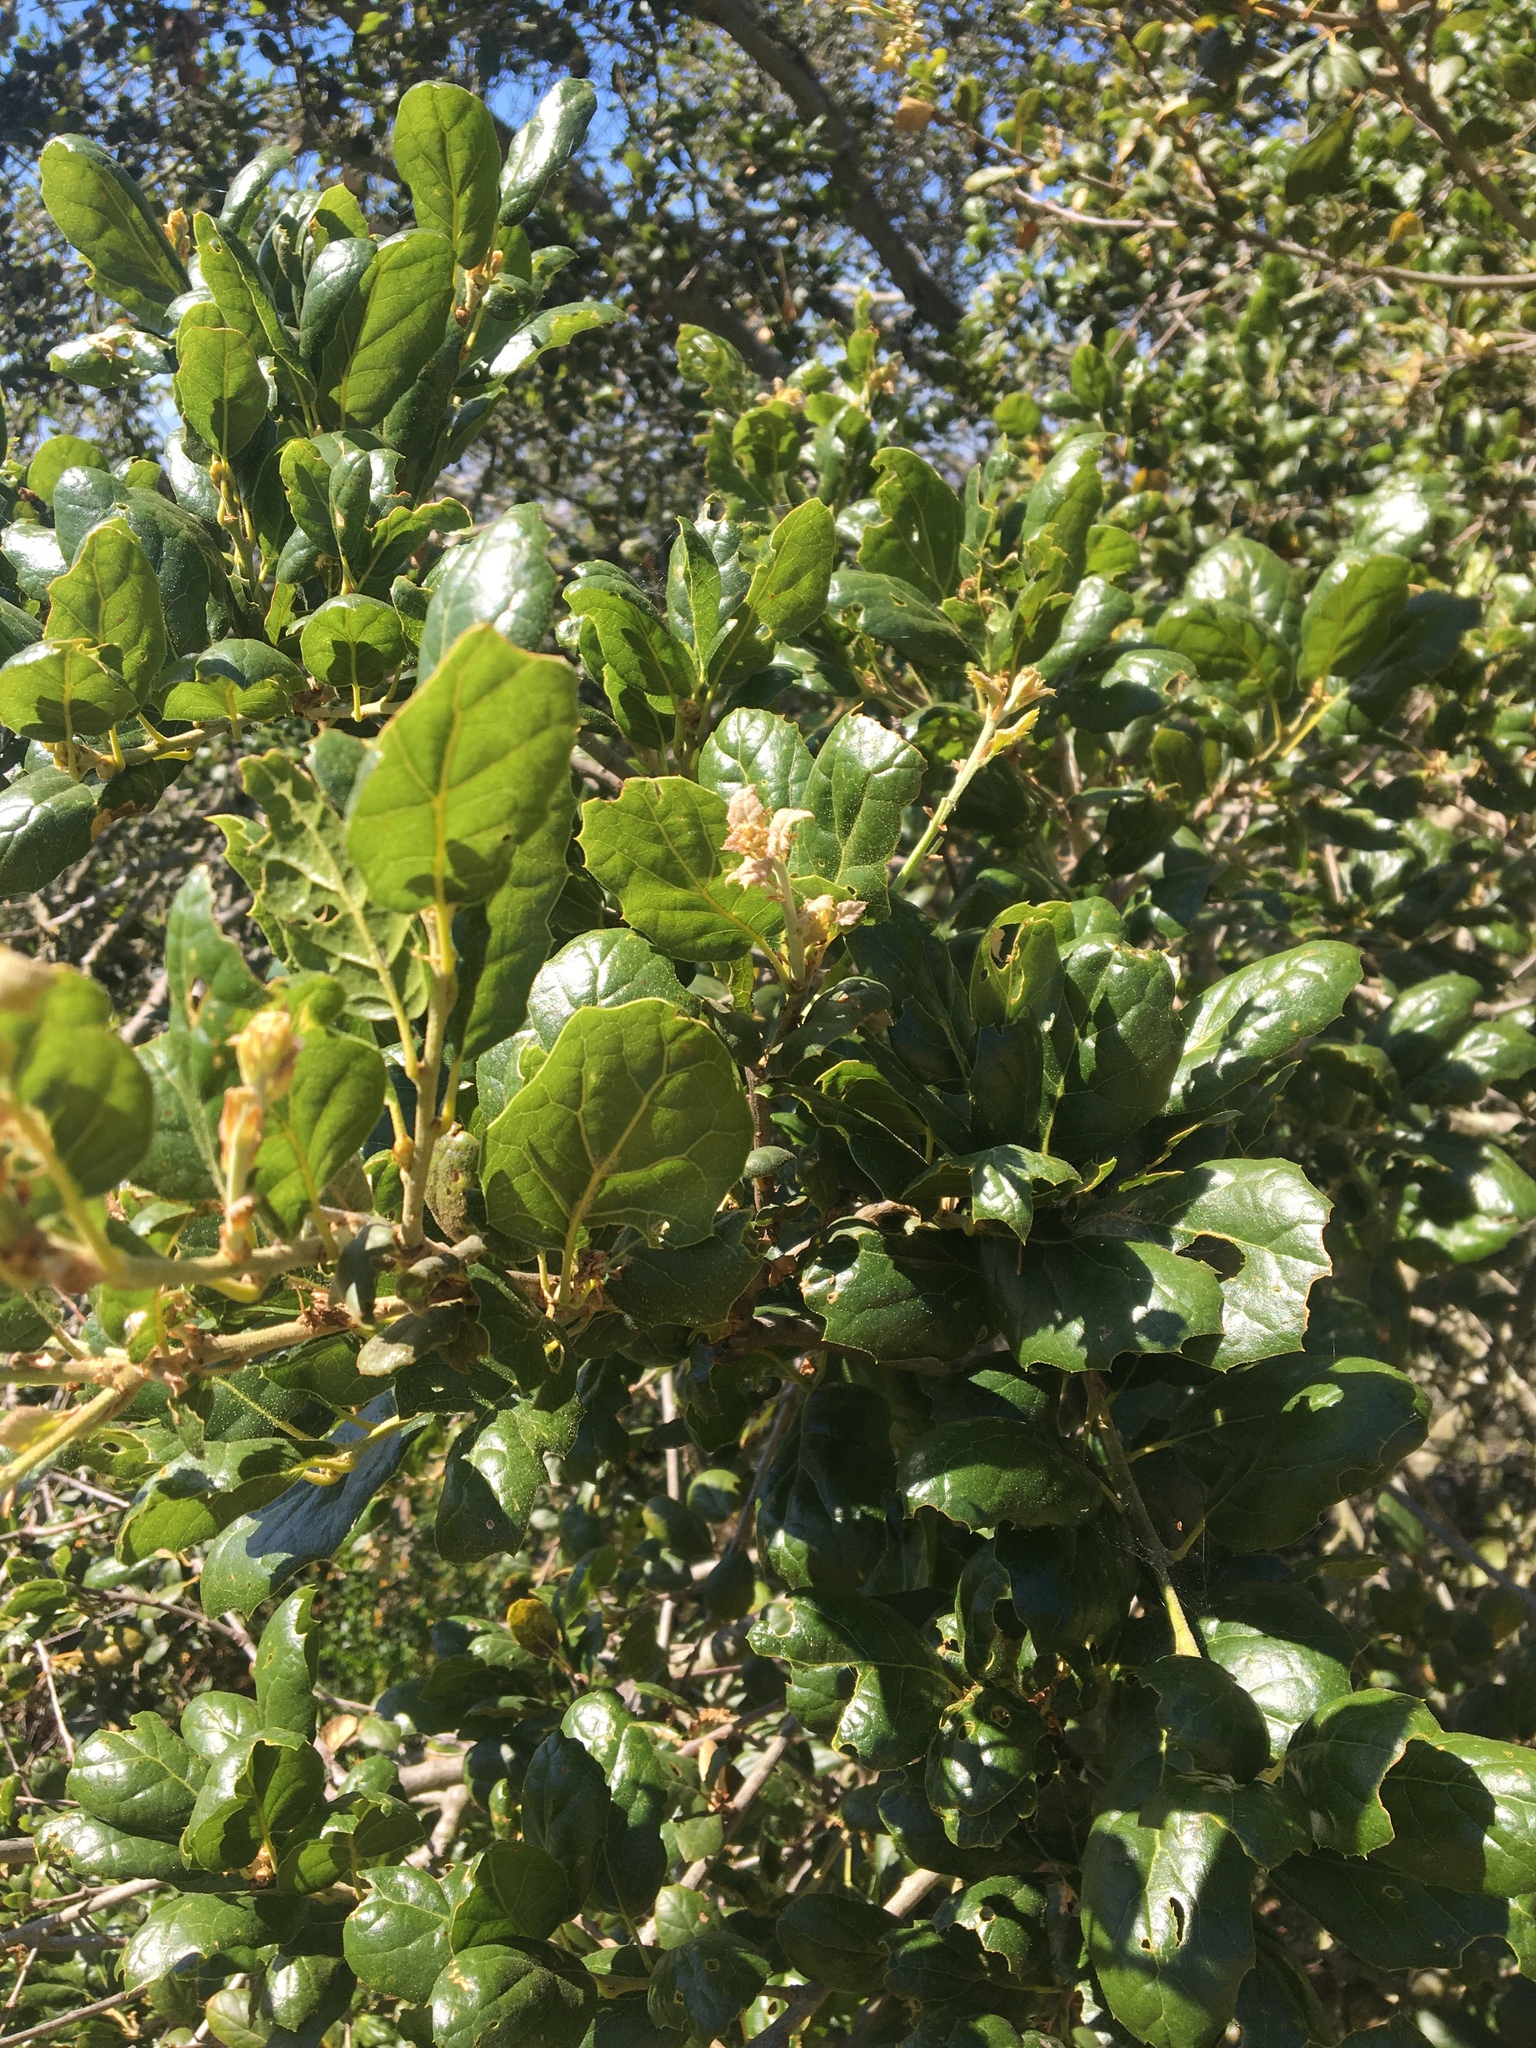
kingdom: Plantae
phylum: Tracheophyta
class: Magnoliopsida
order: Fagales
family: Fagaceae
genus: Quercus
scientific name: Quercus agrifolia
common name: California live oak
